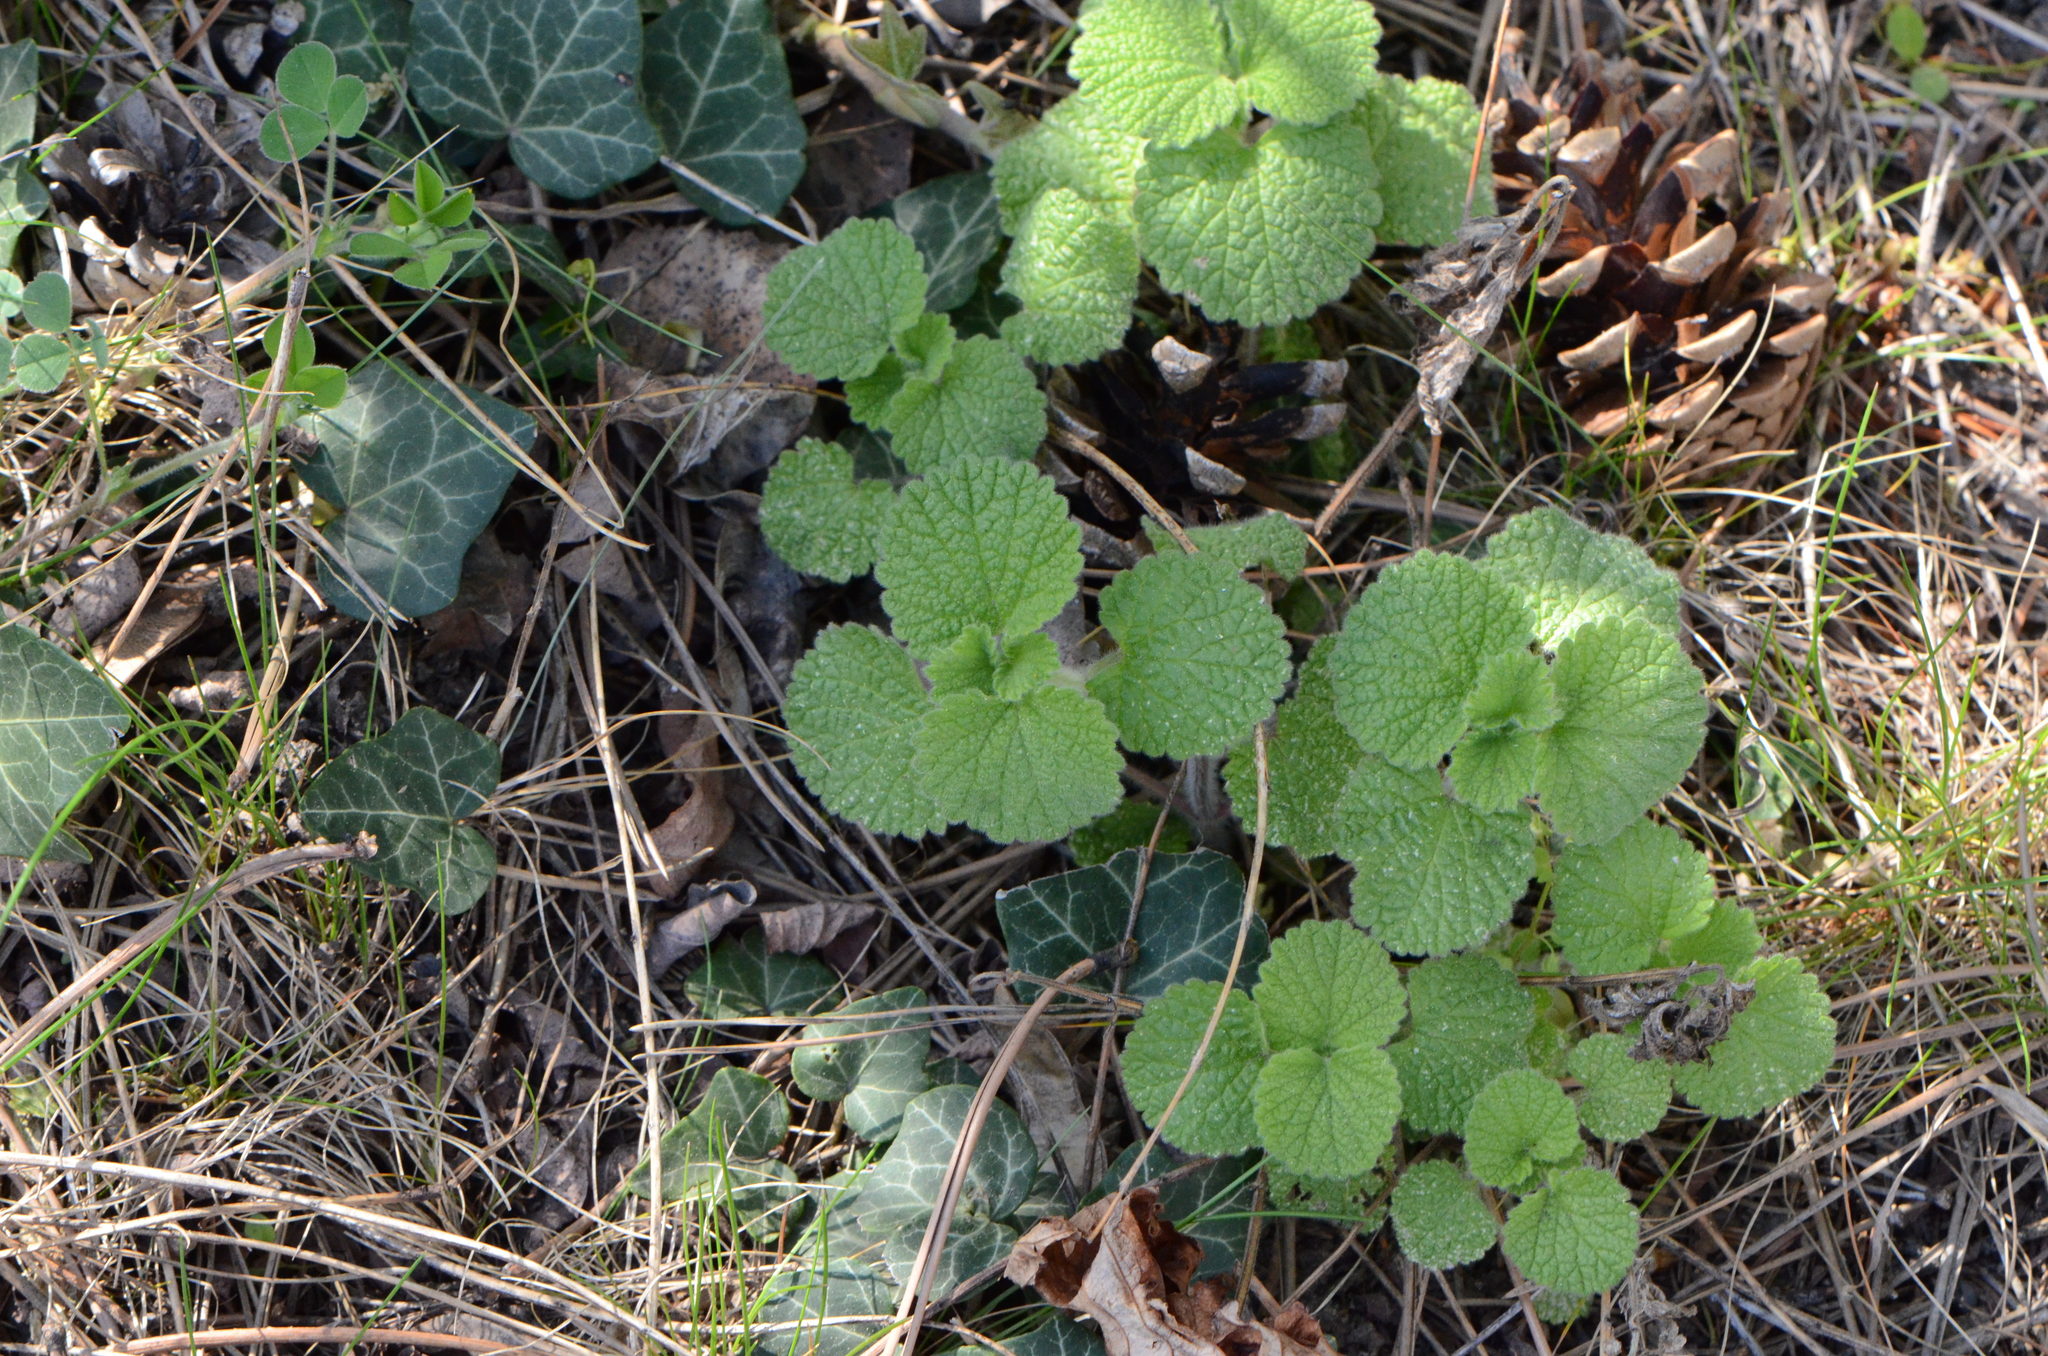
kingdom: Plantae
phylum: Tracheophyta
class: Magnoliopsida
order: Lamiales
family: Lamiaceae
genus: Ballota
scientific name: Ballota nigra
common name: Black horehound
